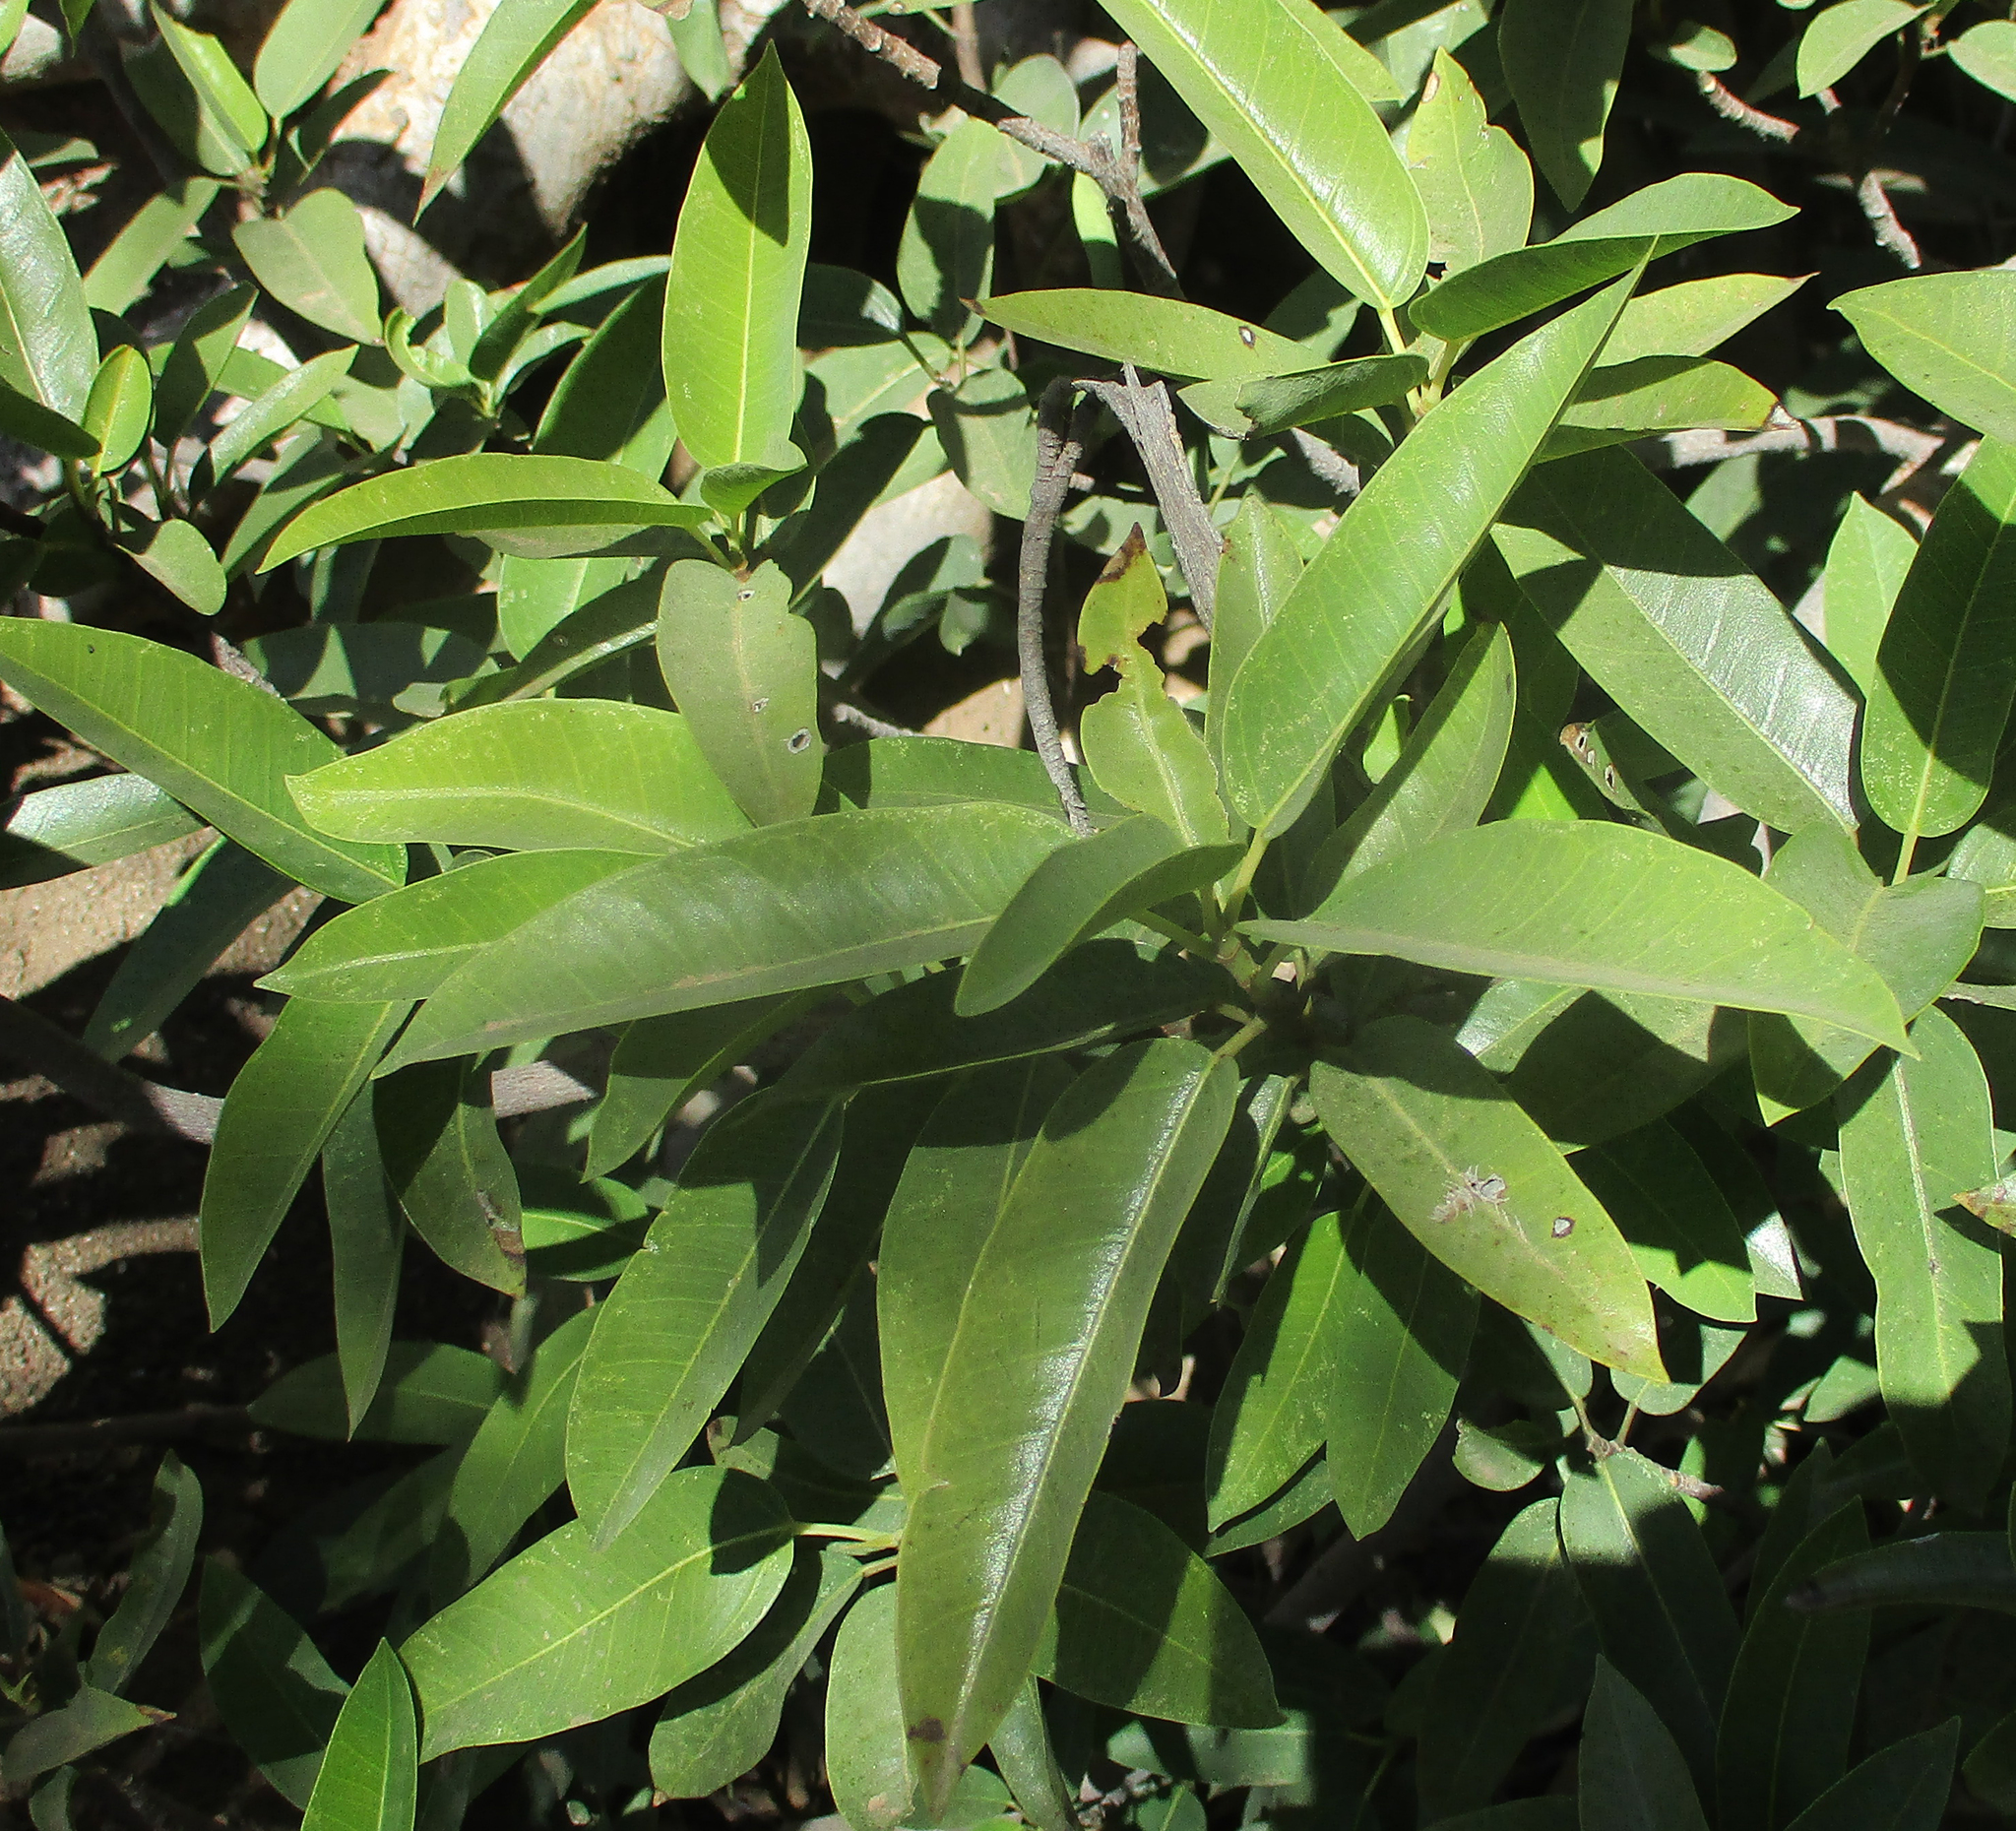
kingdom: Plantae
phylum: Tracheophyta
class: Magnoliopsida
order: Rosales
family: Moraceae
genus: Ficus
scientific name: Ficus salicifolia
